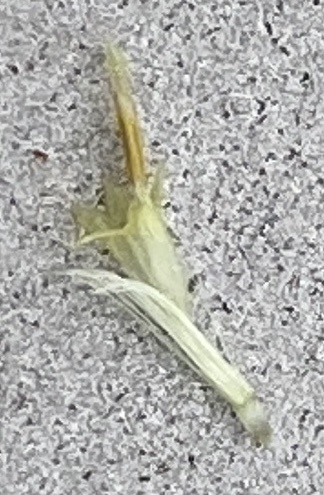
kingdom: Plantae
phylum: Tracheophyta
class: Magnoliopsida
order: Asterales
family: Asteraceae
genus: Symphyotrichum
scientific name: Symphyotrichum pilosum
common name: Awl aster
